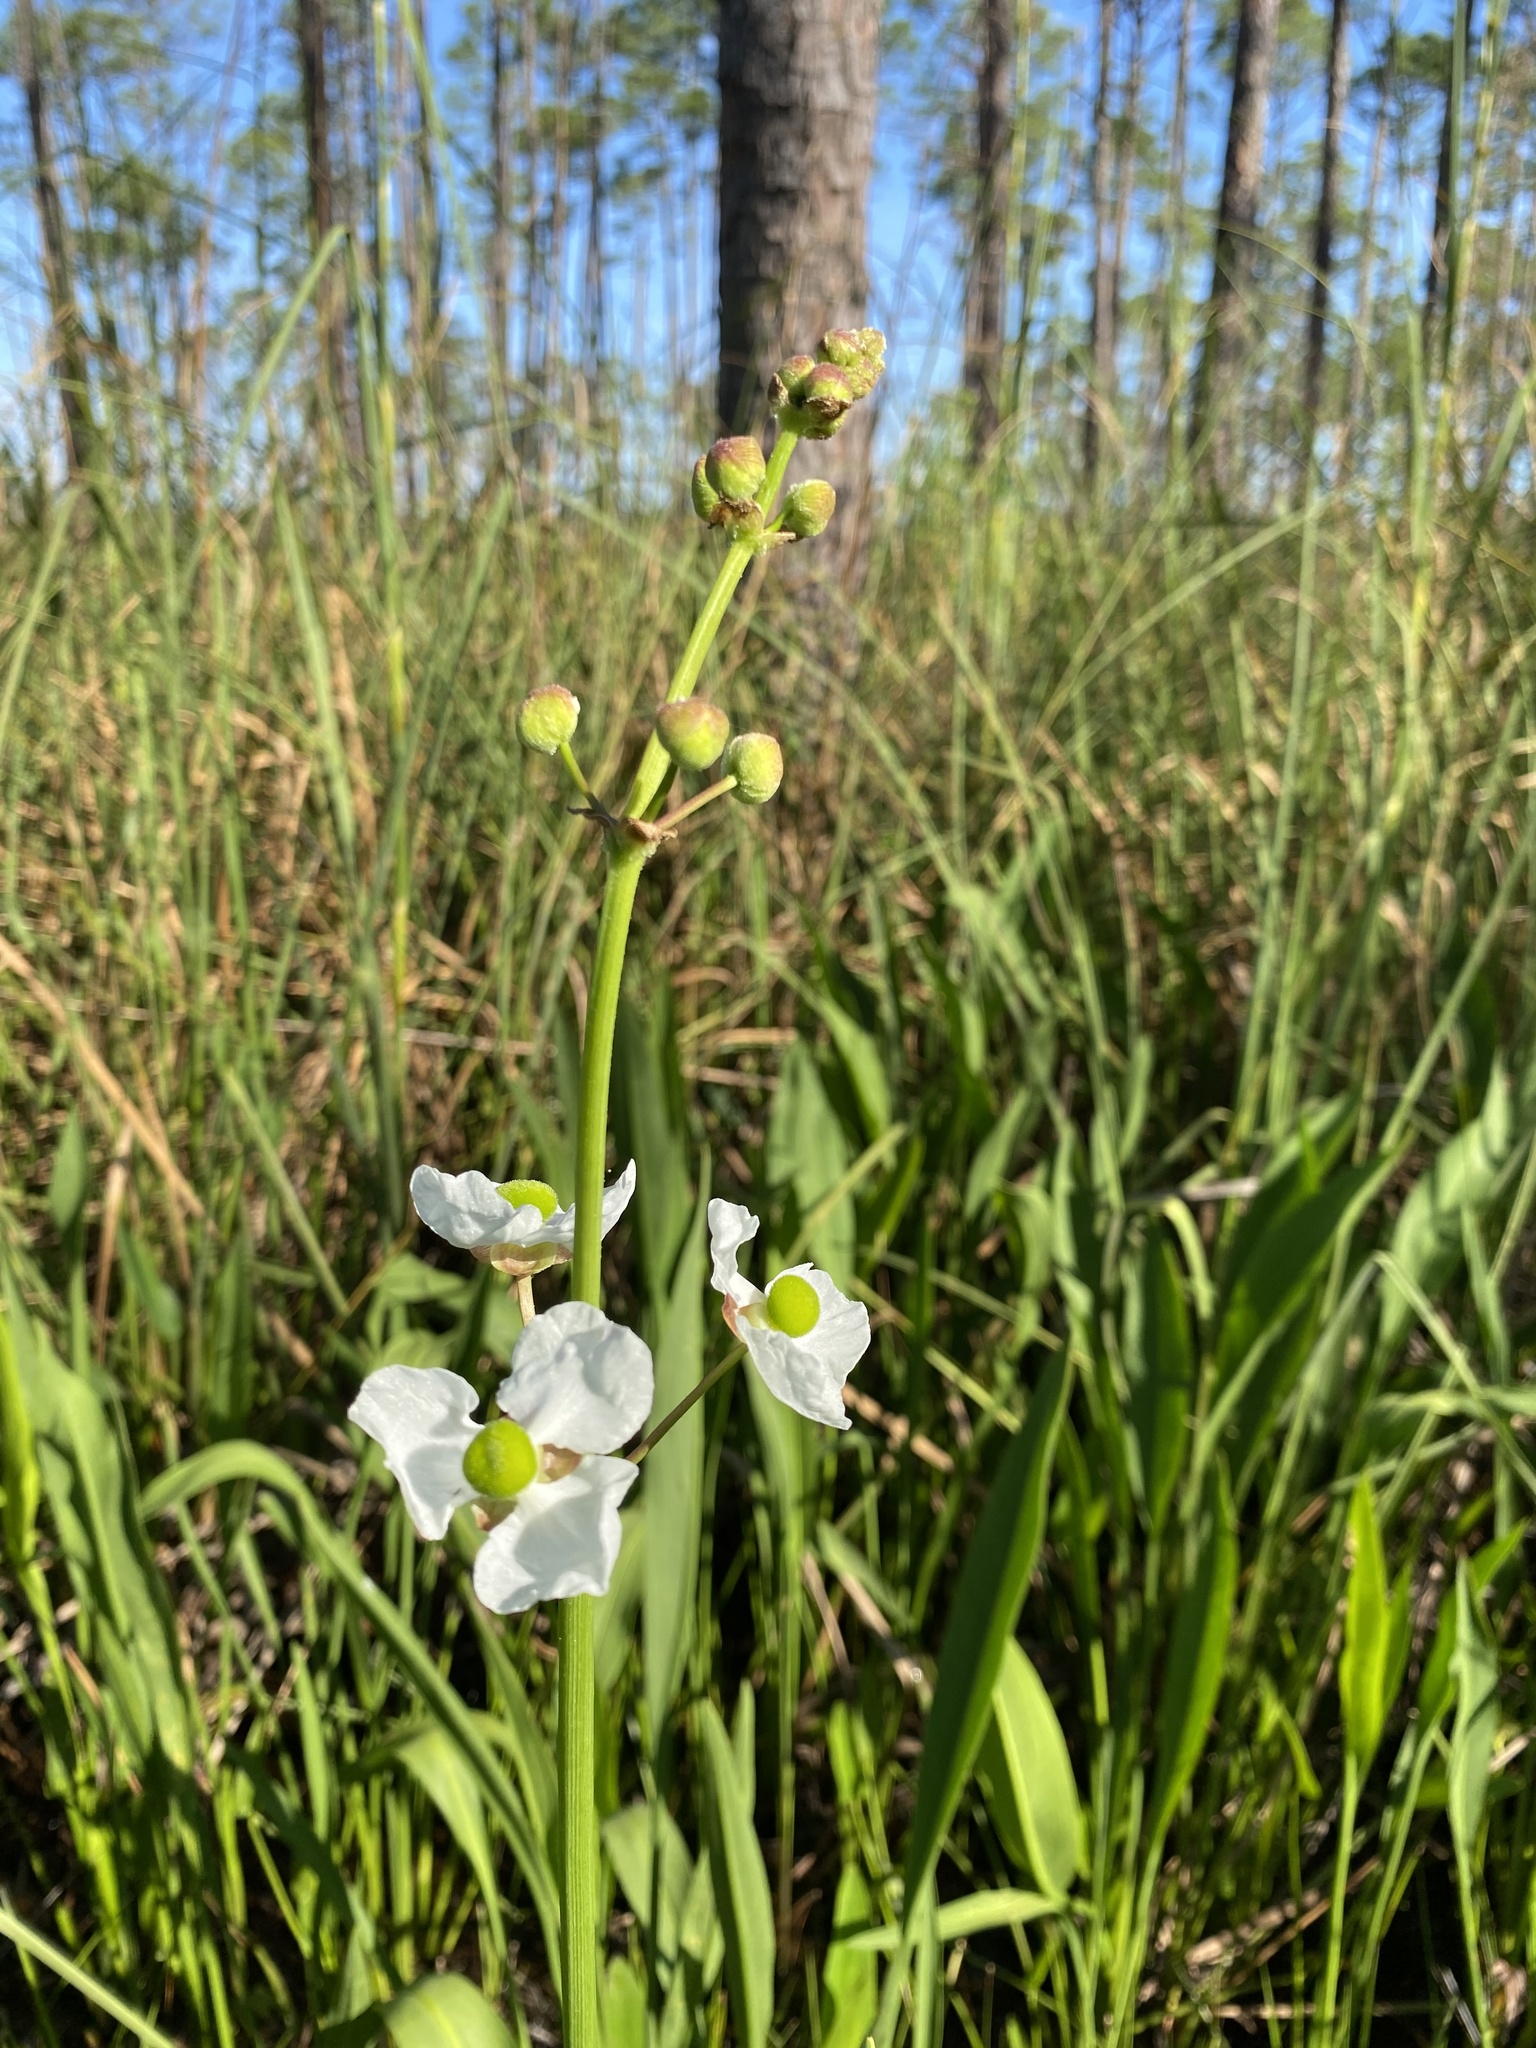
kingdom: Plantae
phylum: Tracheophyta
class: Liliopsida
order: Alismatales
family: Alismataceae
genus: Sagittaria
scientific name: Sagittaria lancifolia
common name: Lance-leaf arrowhead
